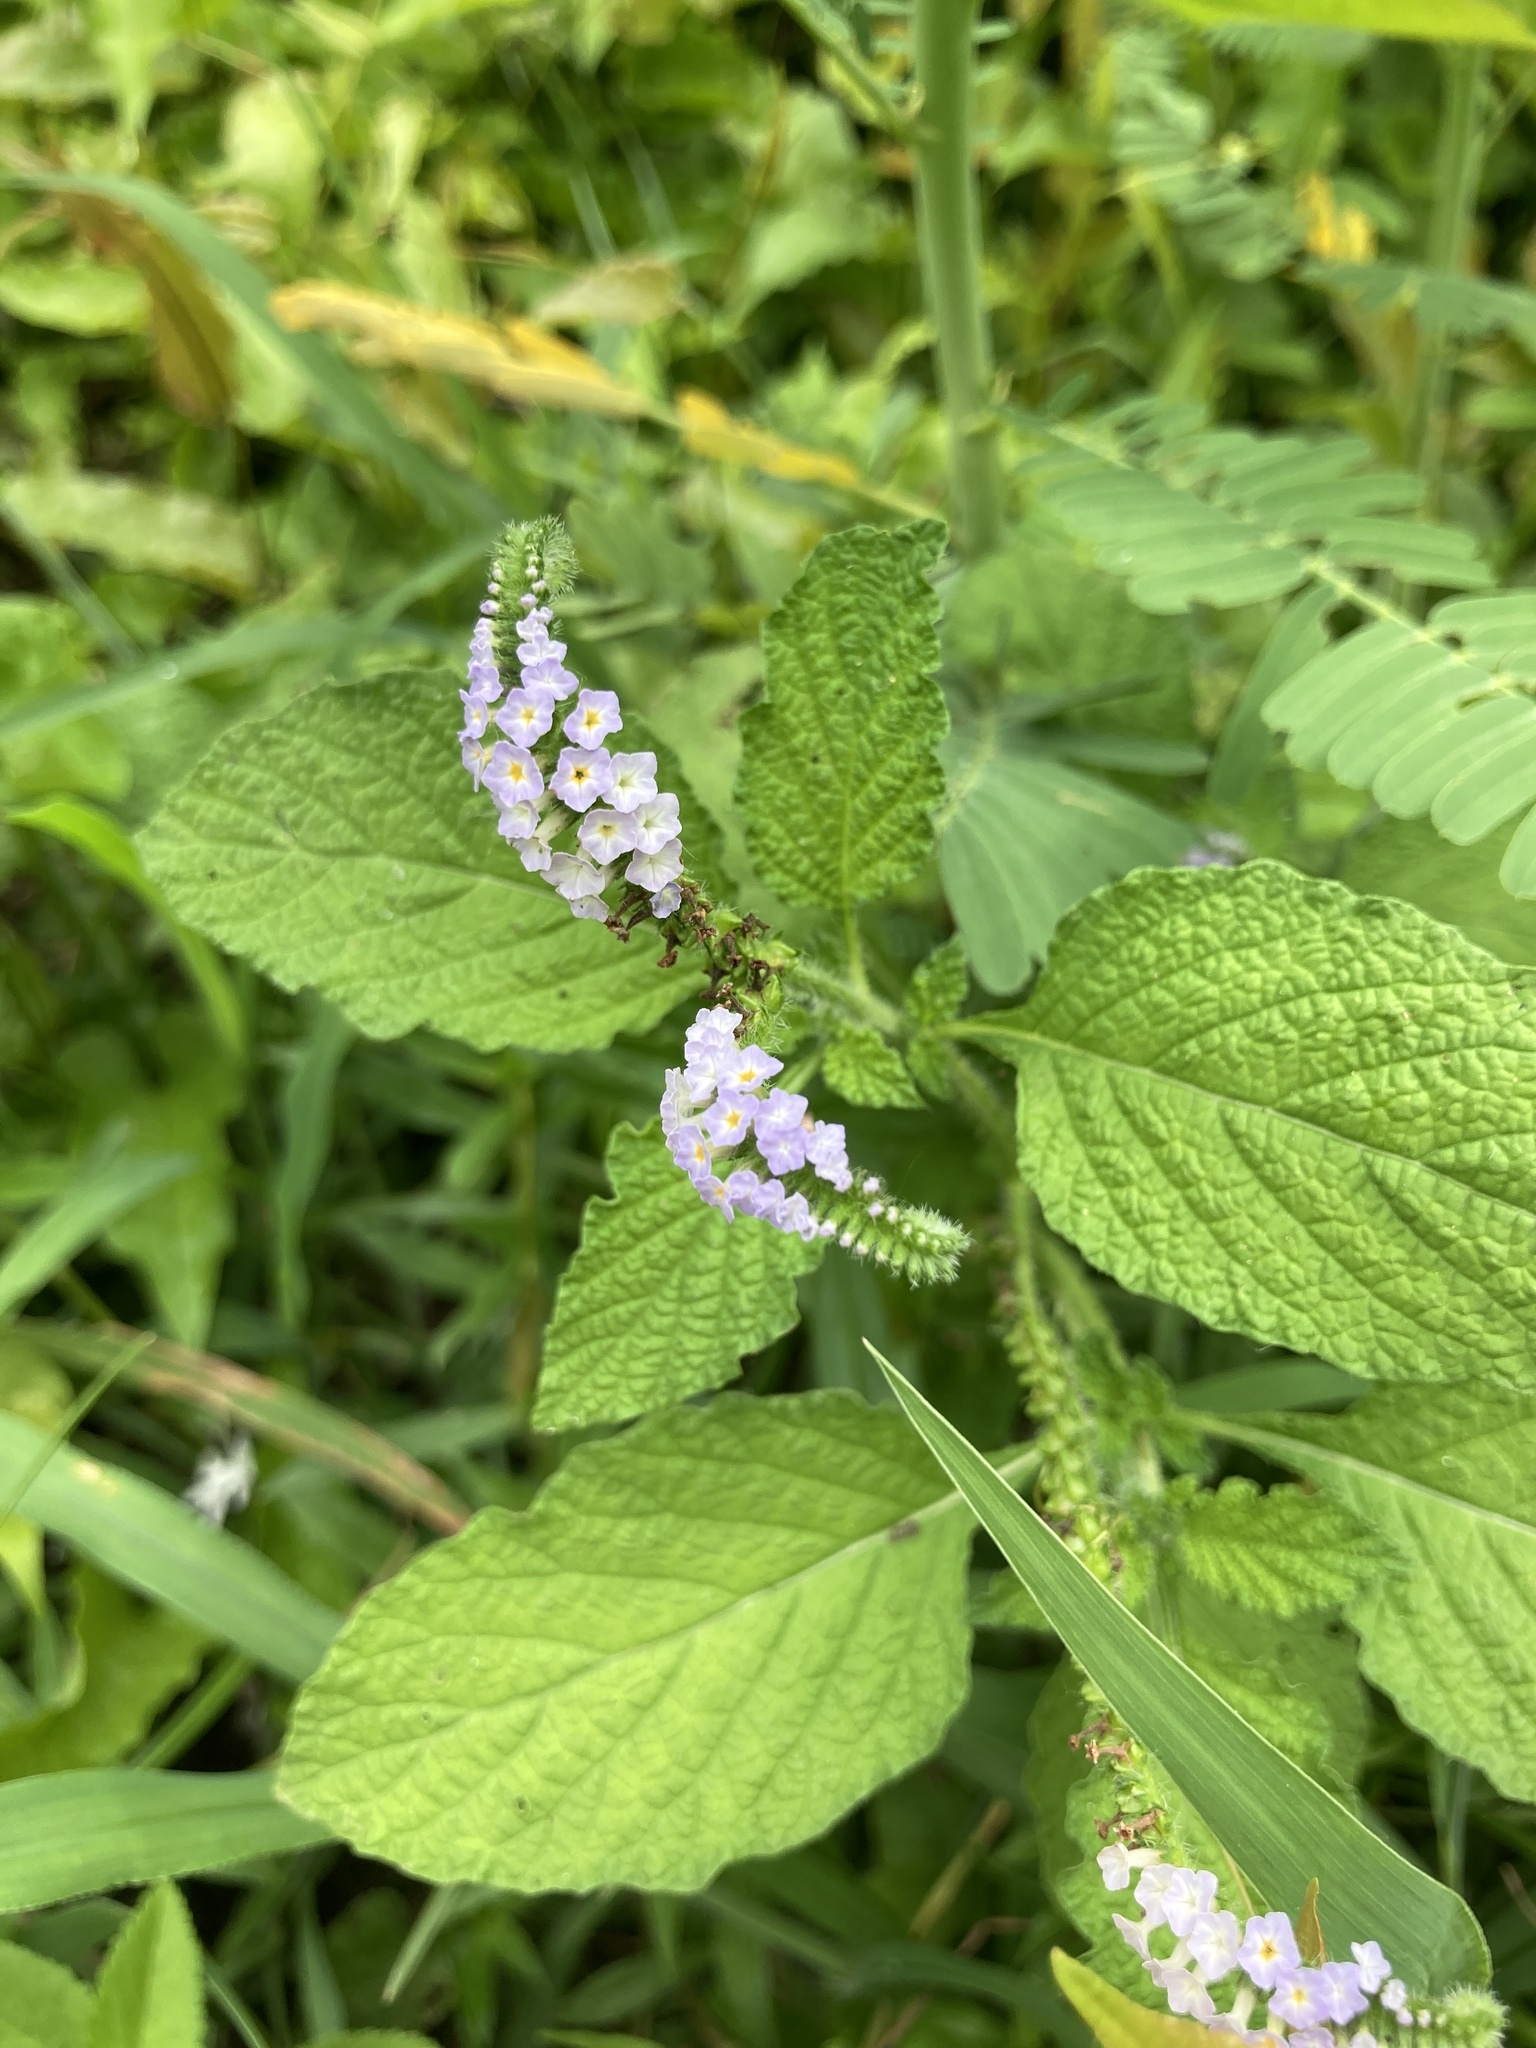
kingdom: Plantae
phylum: Tracheophyta
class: Magnoliopsida
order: Boraginales
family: Heliotropiaceae
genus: Heliotropium
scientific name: Heliotropium indicum
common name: Indian heliotrope
